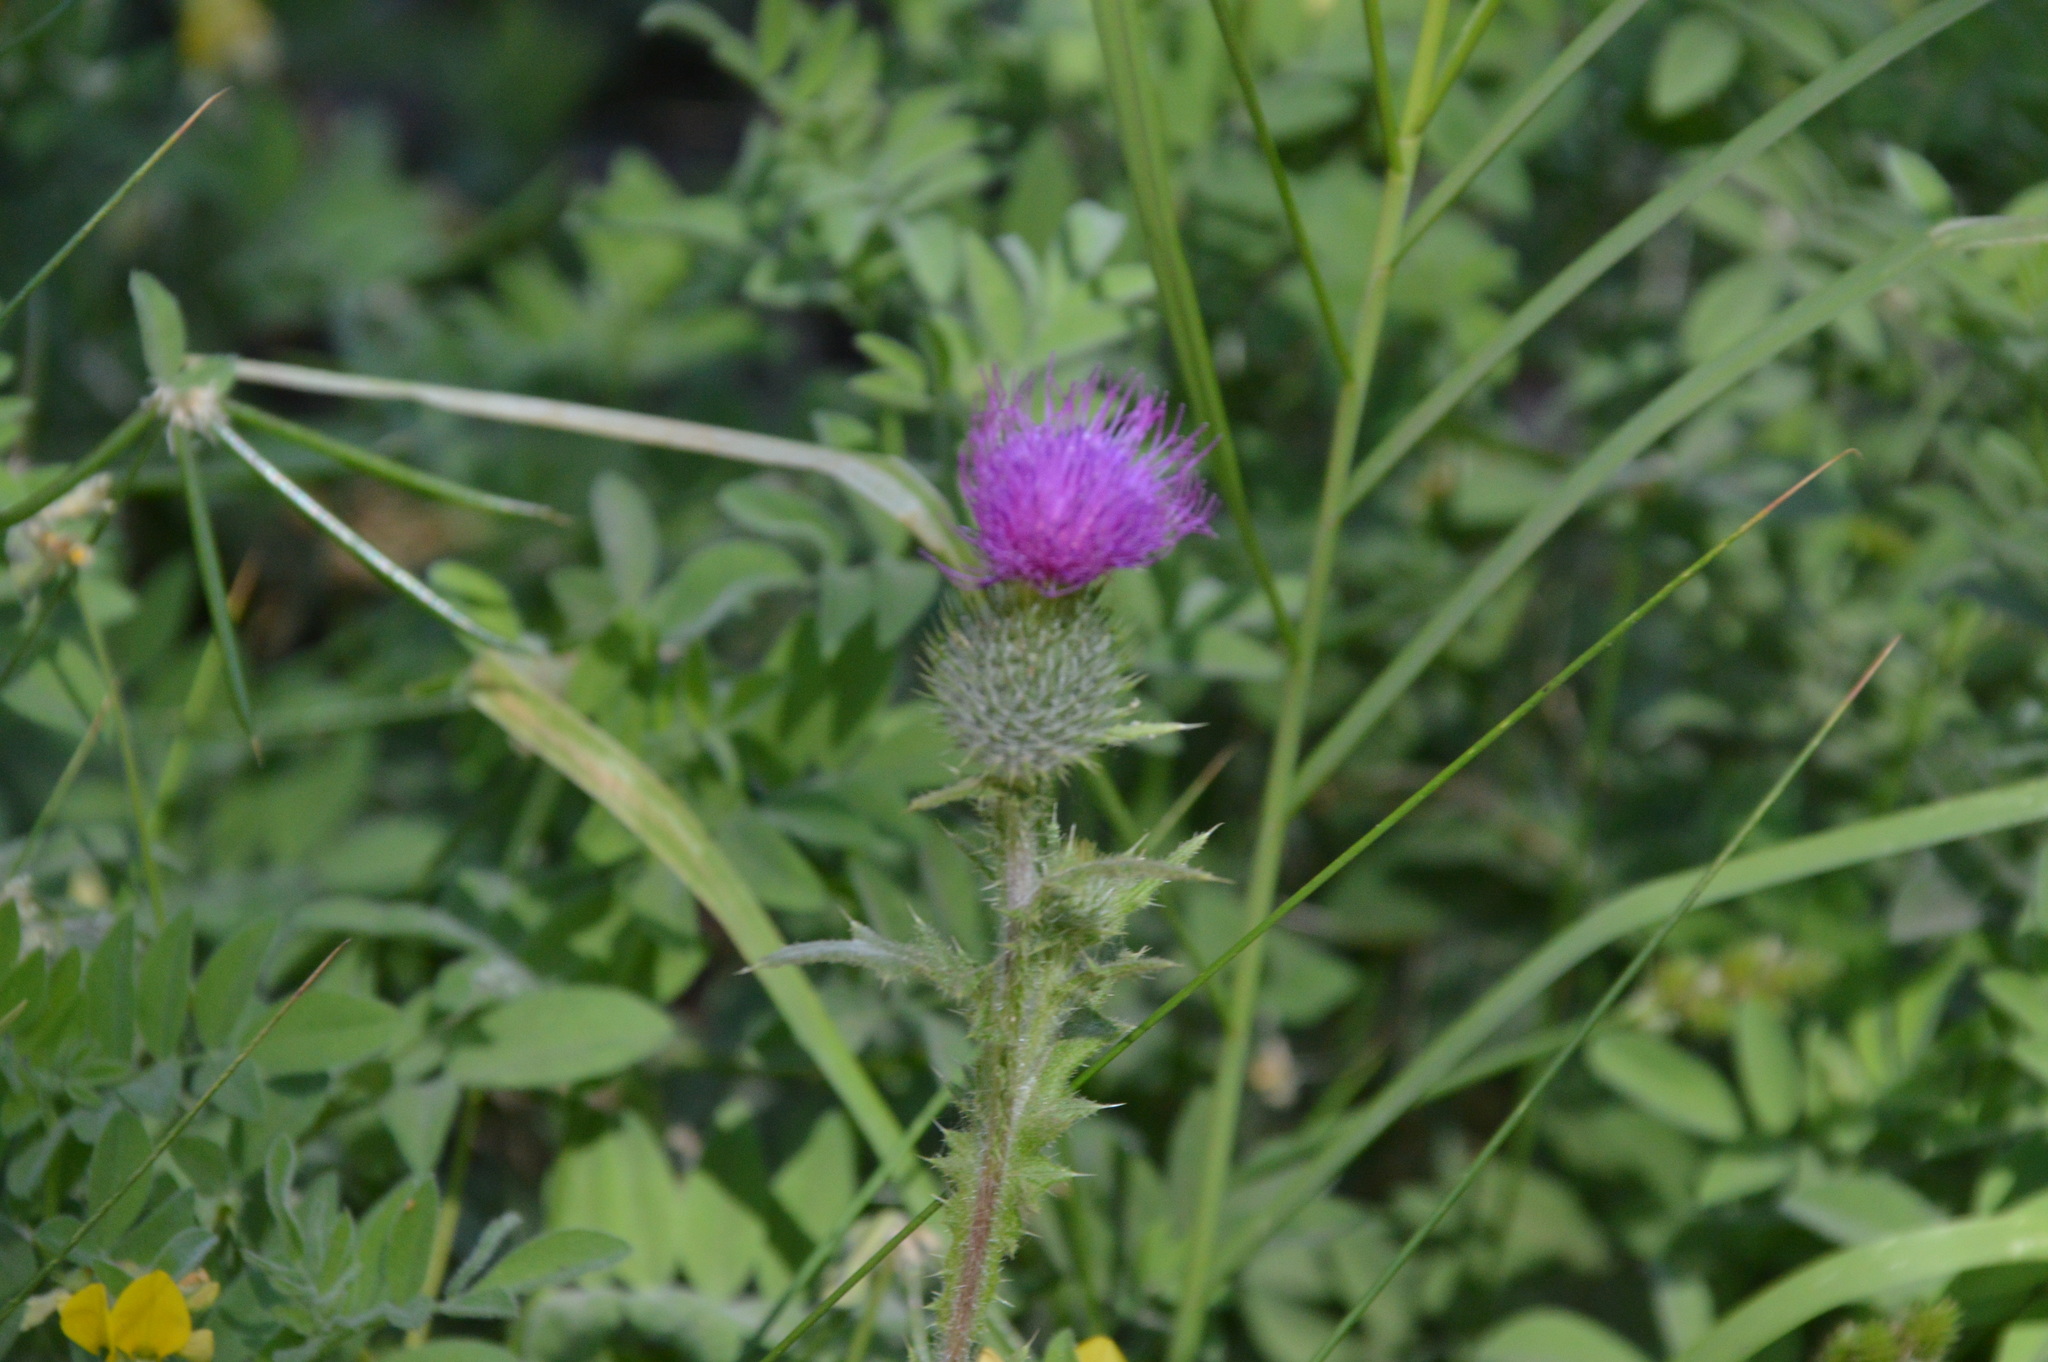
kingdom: Plantae
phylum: Tracheophyta
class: Magnoliopsida
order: Asterales
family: Asteraceae
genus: Cirsium
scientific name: Cirsium vulgare
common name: Bull thistle
